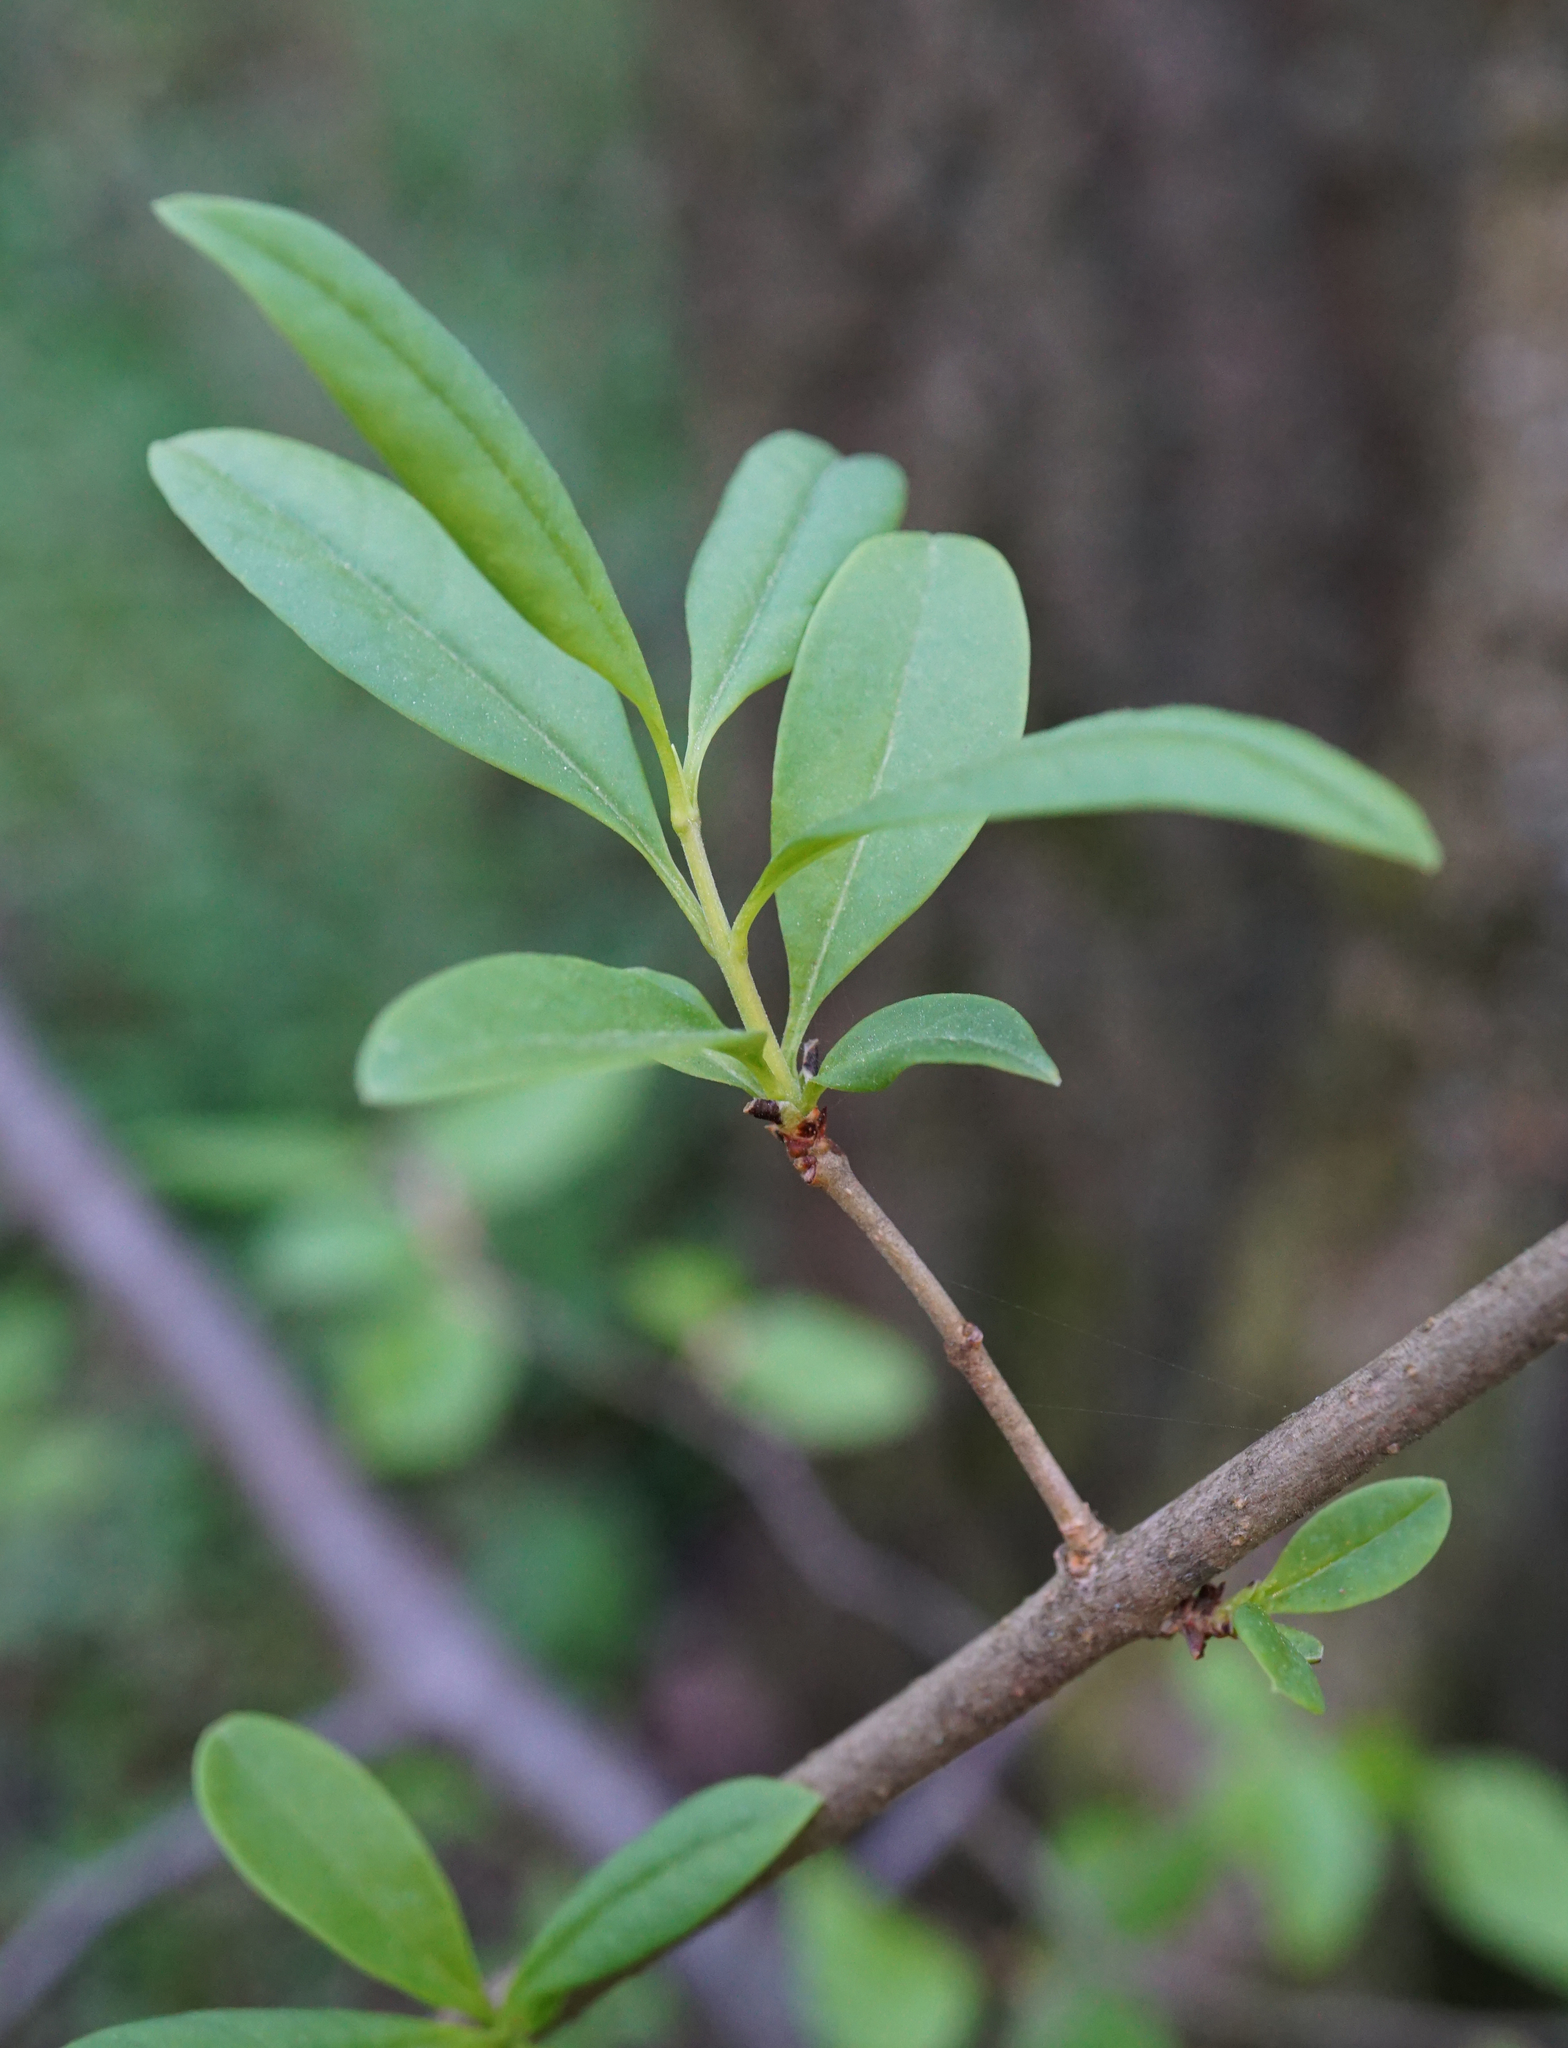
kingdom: Plantae
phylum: Tracheophyta
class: Magnoliopsida
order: Lamiales
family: Oleaceae
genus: Ligustrum
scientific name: Ligustrum vulgare
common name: Wild privet
